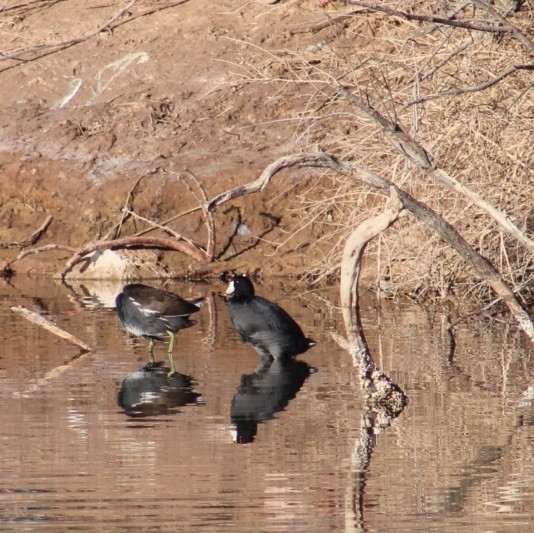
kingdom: Animalia
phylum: Chordata
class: Aves
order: Gruiformes
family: Rallidae
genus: Fulica
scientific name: Fulica americana
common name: American coot
